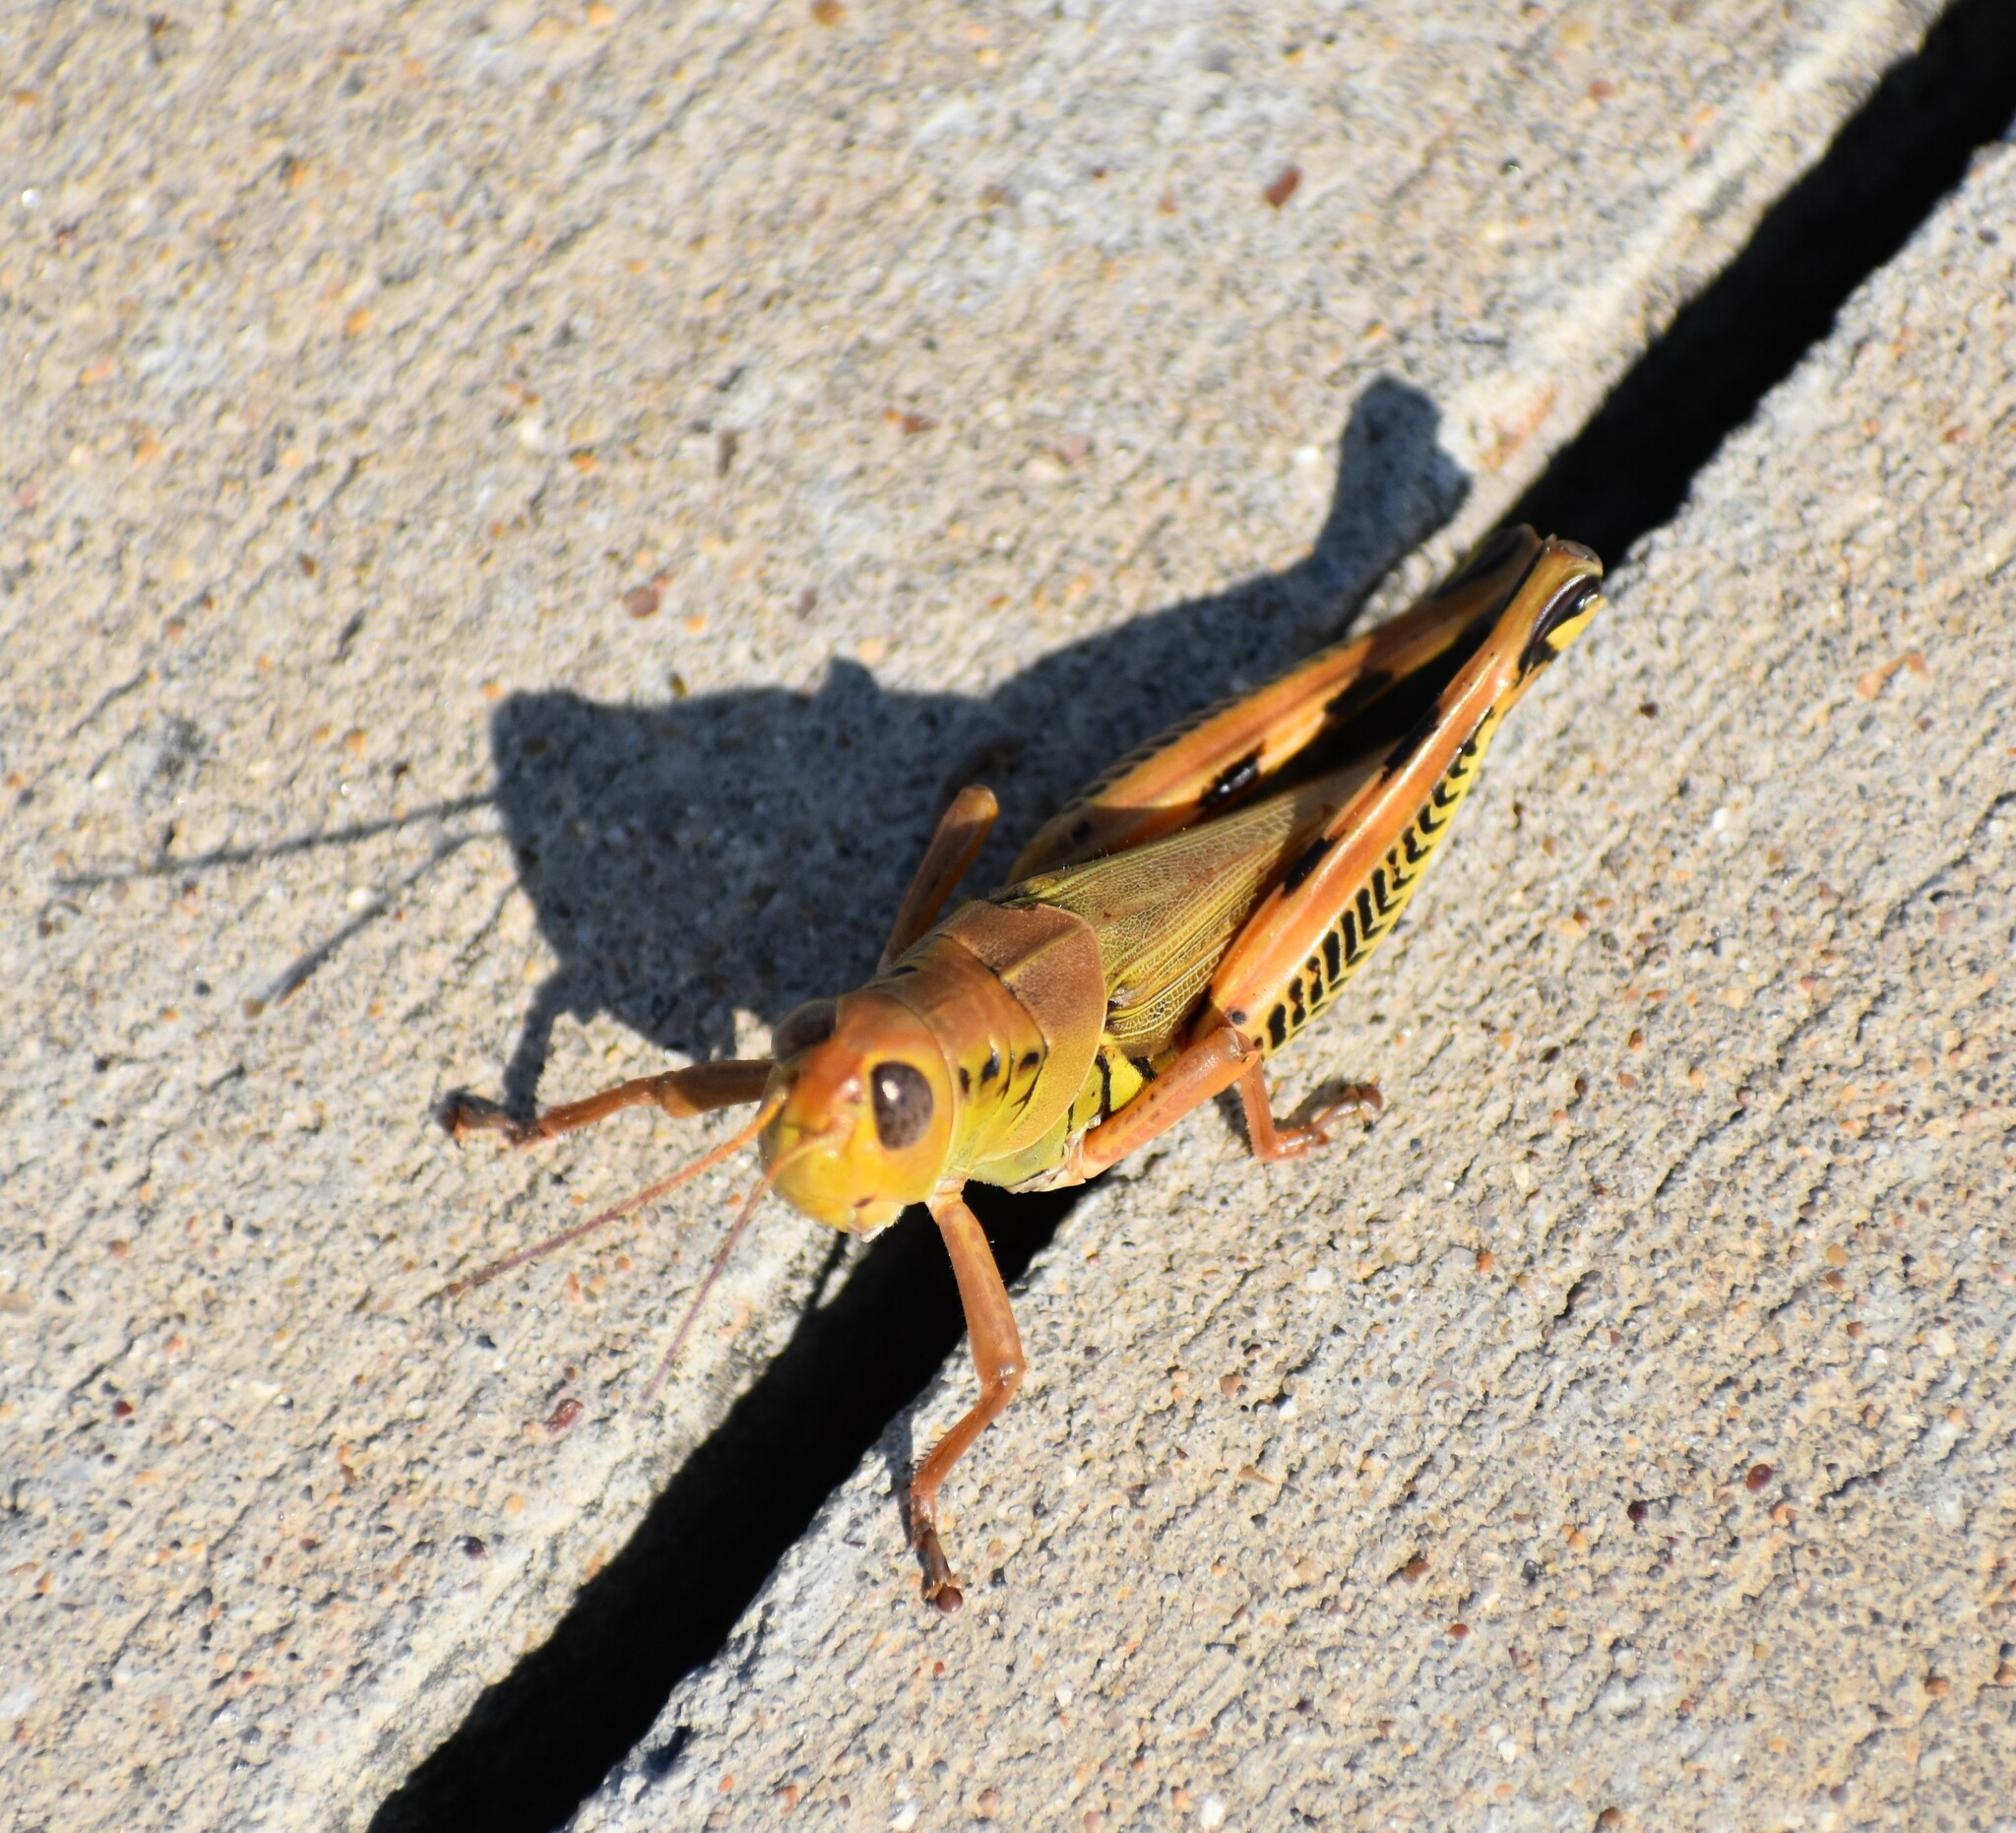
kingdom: Animalia
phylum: Arthropoda
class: Insecta
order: Orthoptera
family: Acrididae
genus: Melanoplus
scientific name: Melanoplus differentialis
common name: Differential grasshopper
